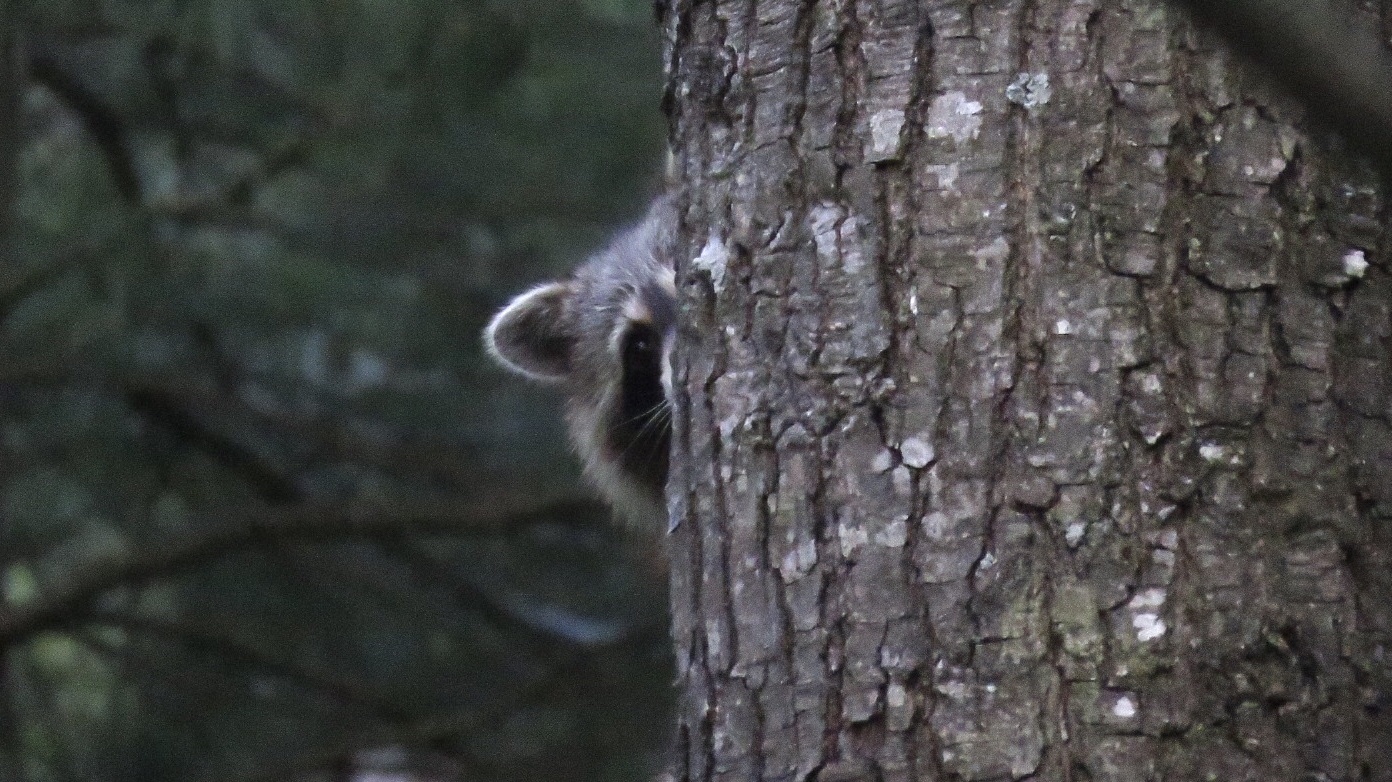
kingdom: Animalia
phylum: Chordata
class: Mammalia
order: Carnivora
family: Procyonidae
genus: Procyon
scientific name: Procyon lotor
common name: Raccoon
